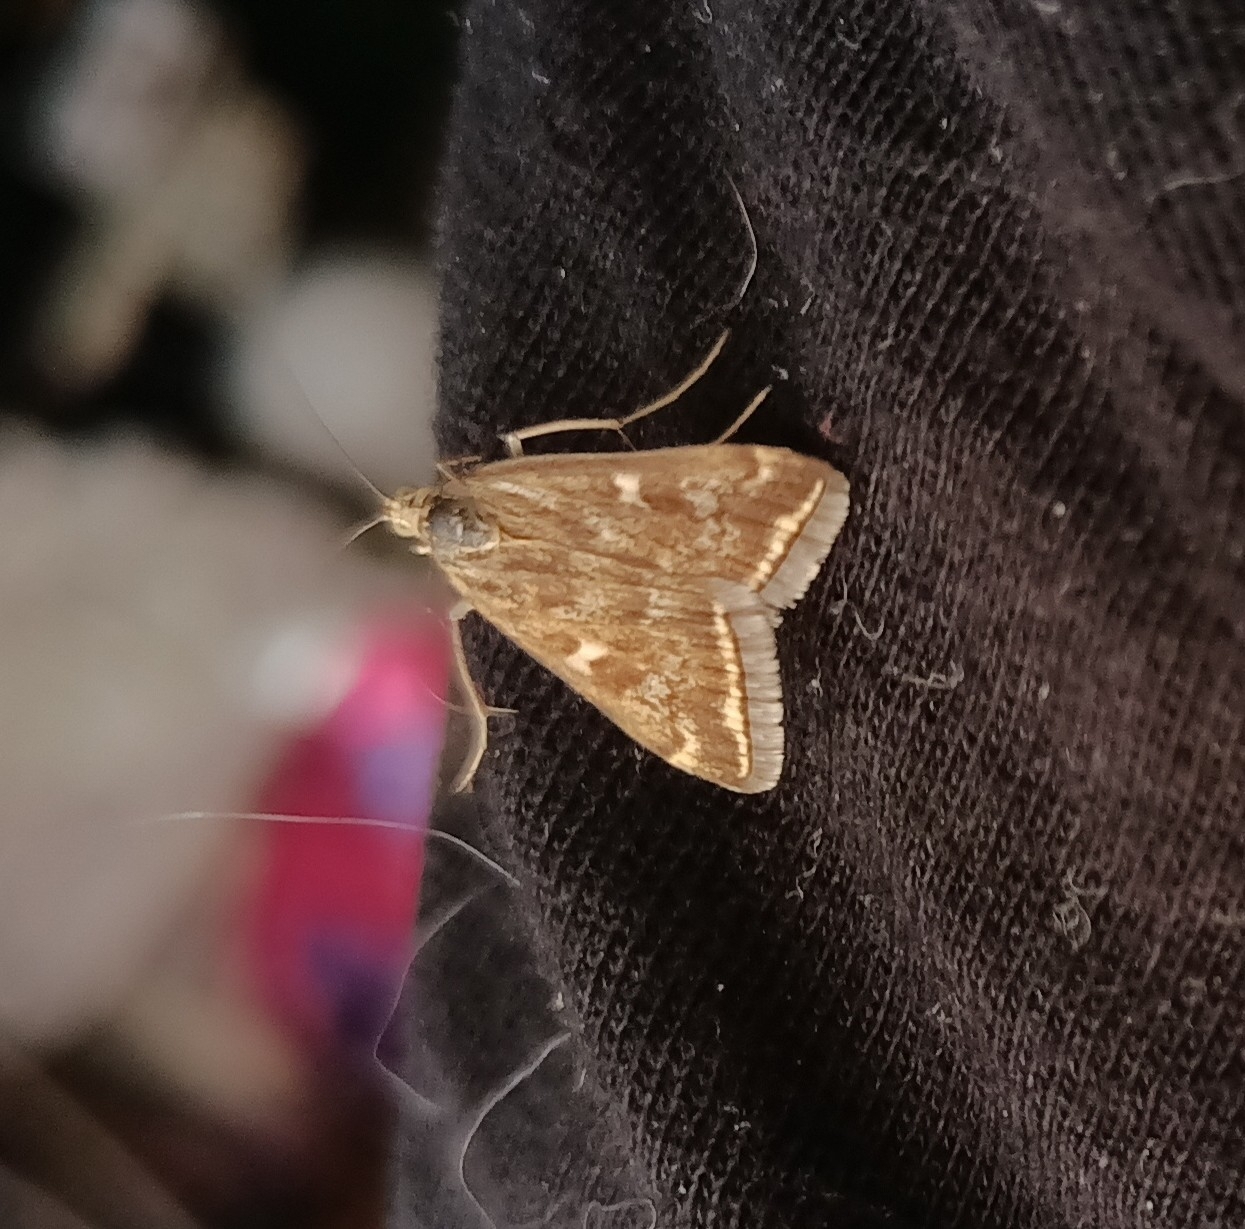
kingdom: Animalia
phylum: Arthropoda
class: Insecta
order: Lepidoptera
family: Crambidae
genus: Loxostege
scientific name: Loxostege sticticalis
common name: Crambid moth
